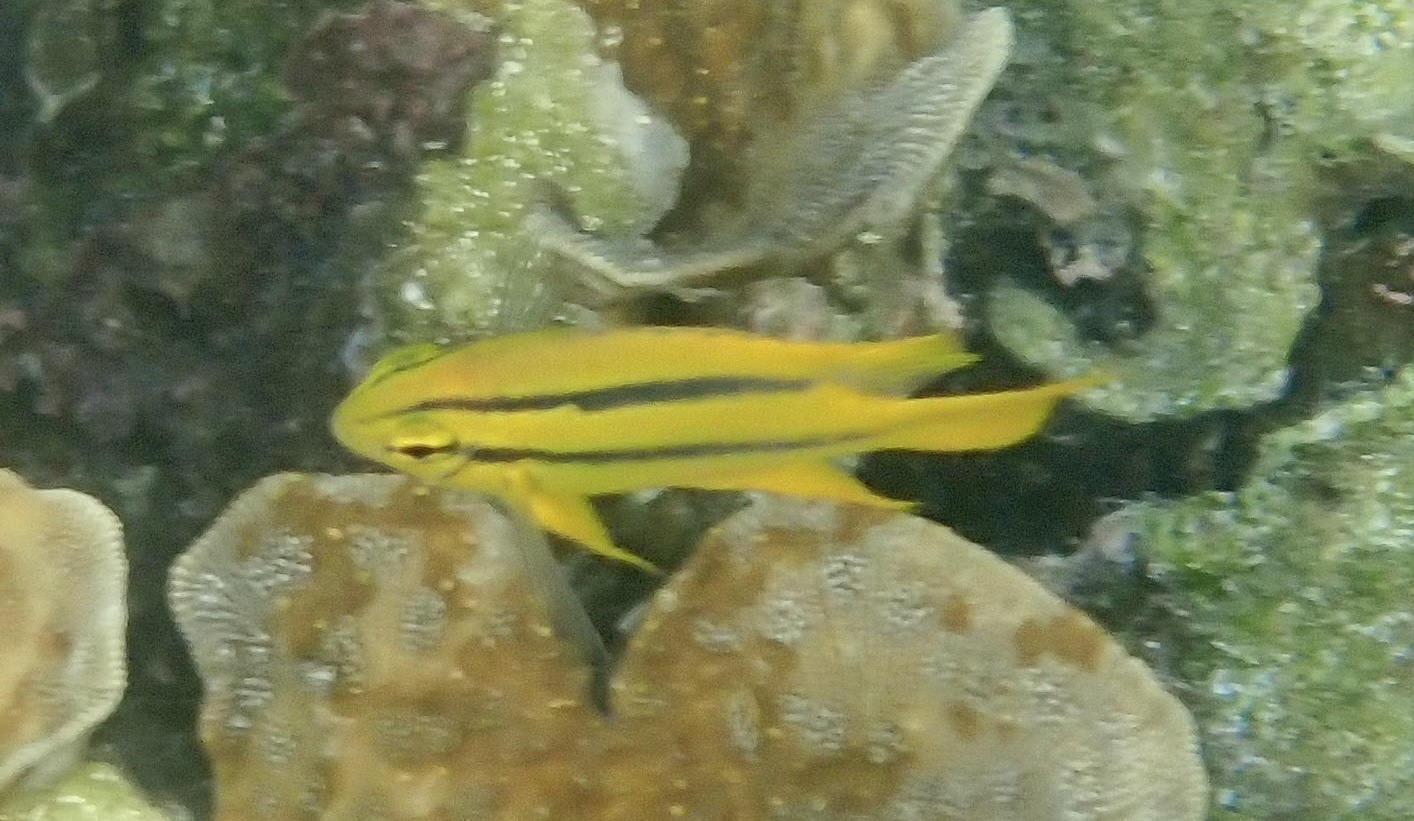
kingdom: Animalia
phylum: Chordata
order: Perciformes
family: Pomacentridae
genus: Neoglyphidodon
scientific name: Neoglyphidodon nigroris
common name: Behn's damsel
